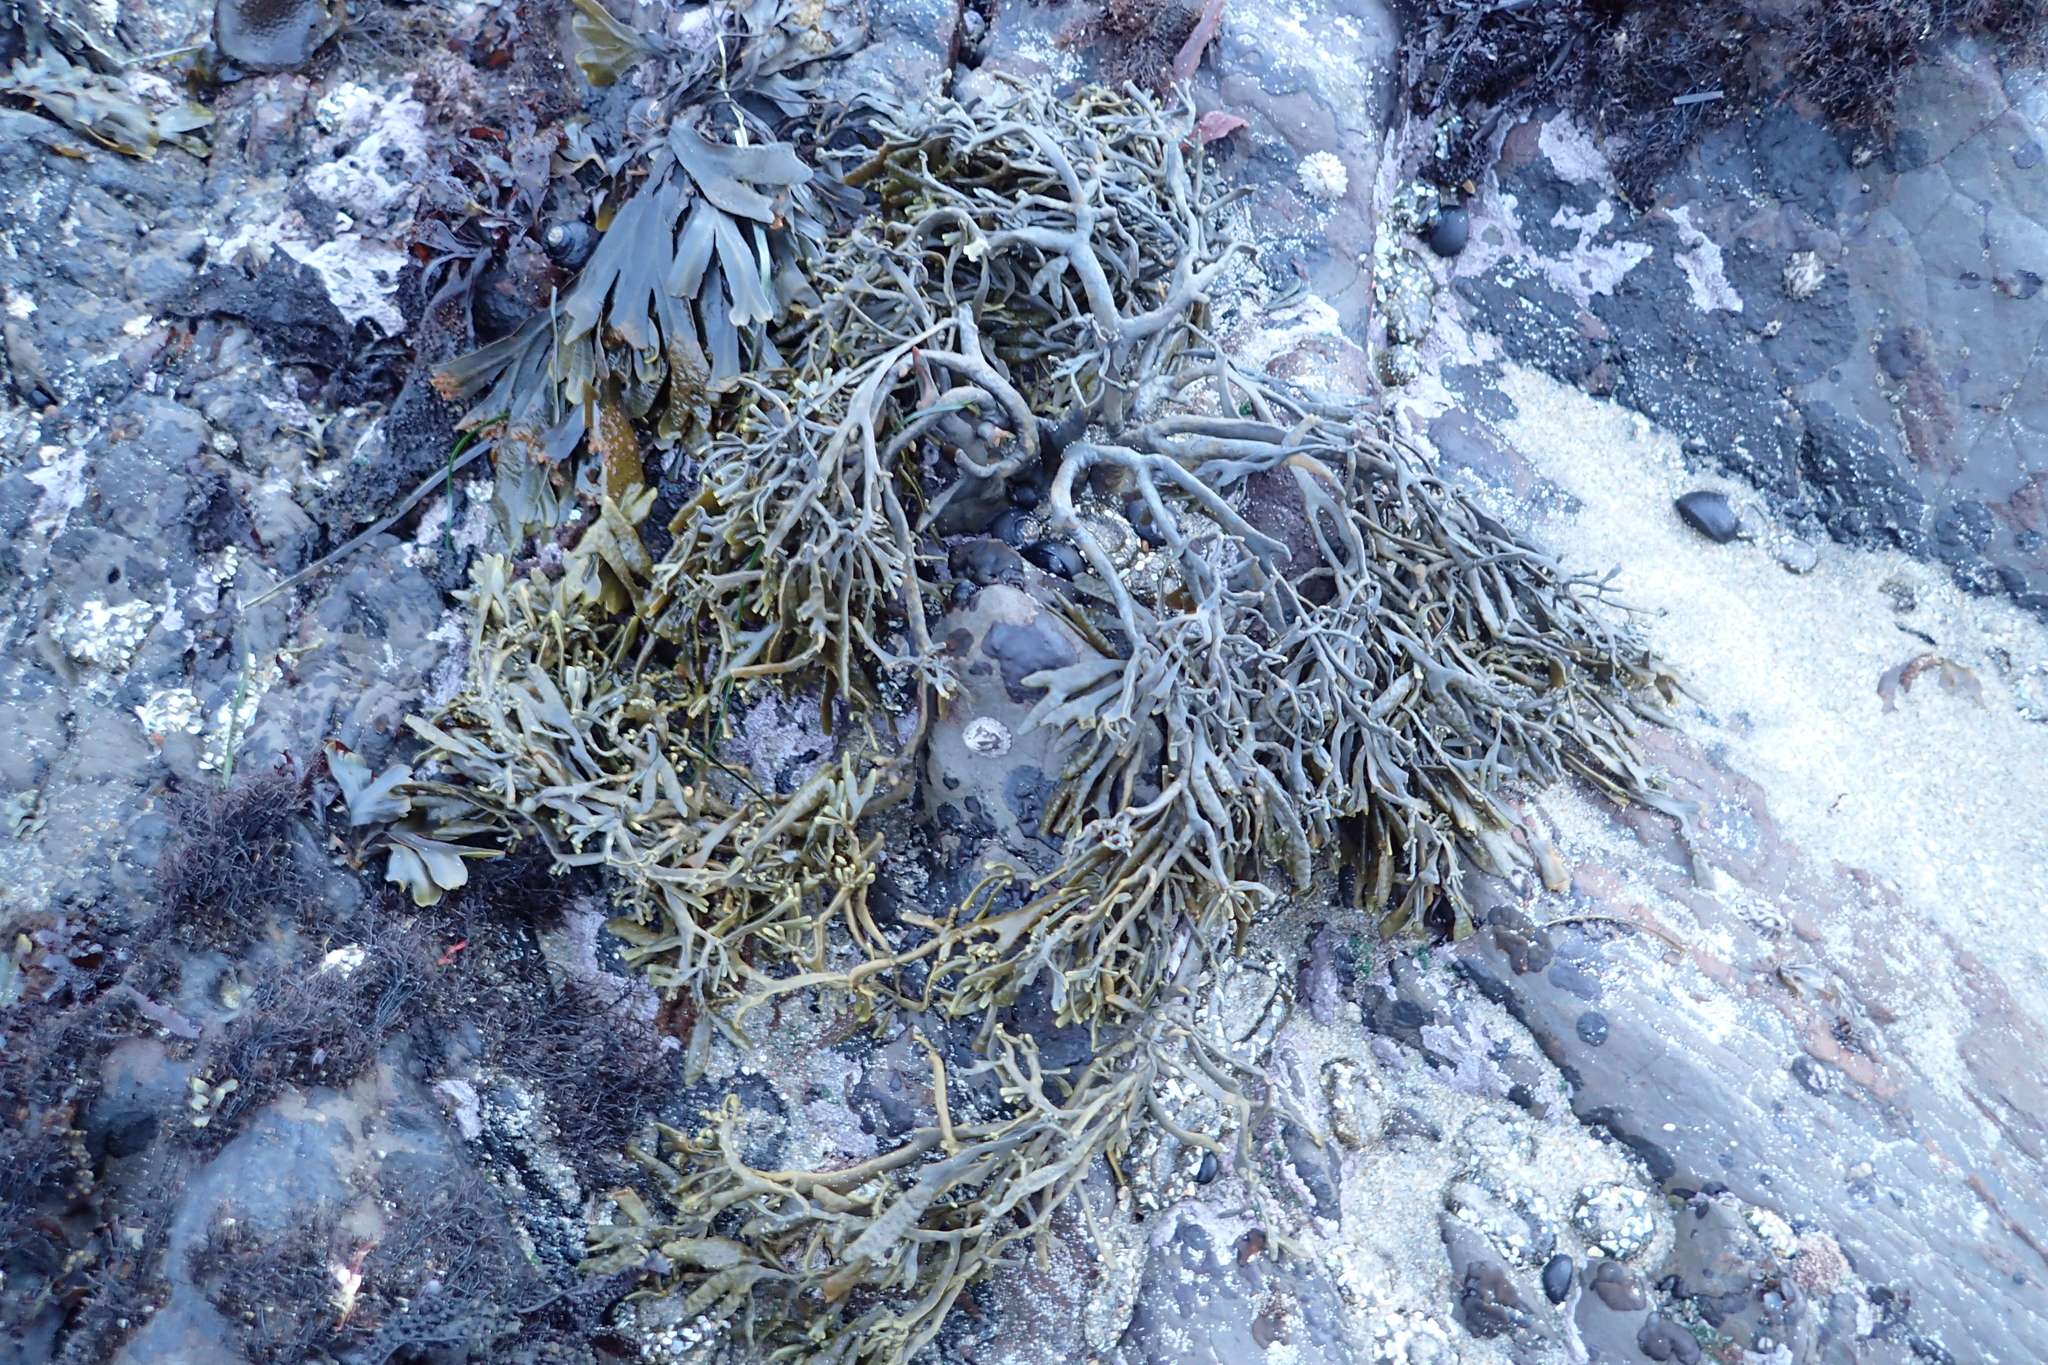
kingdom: Chromista
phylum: Ochrophyta
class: Phaeophyceae
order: Fucales
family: Fucaceae
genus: Silvetia
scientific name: Silvetia
